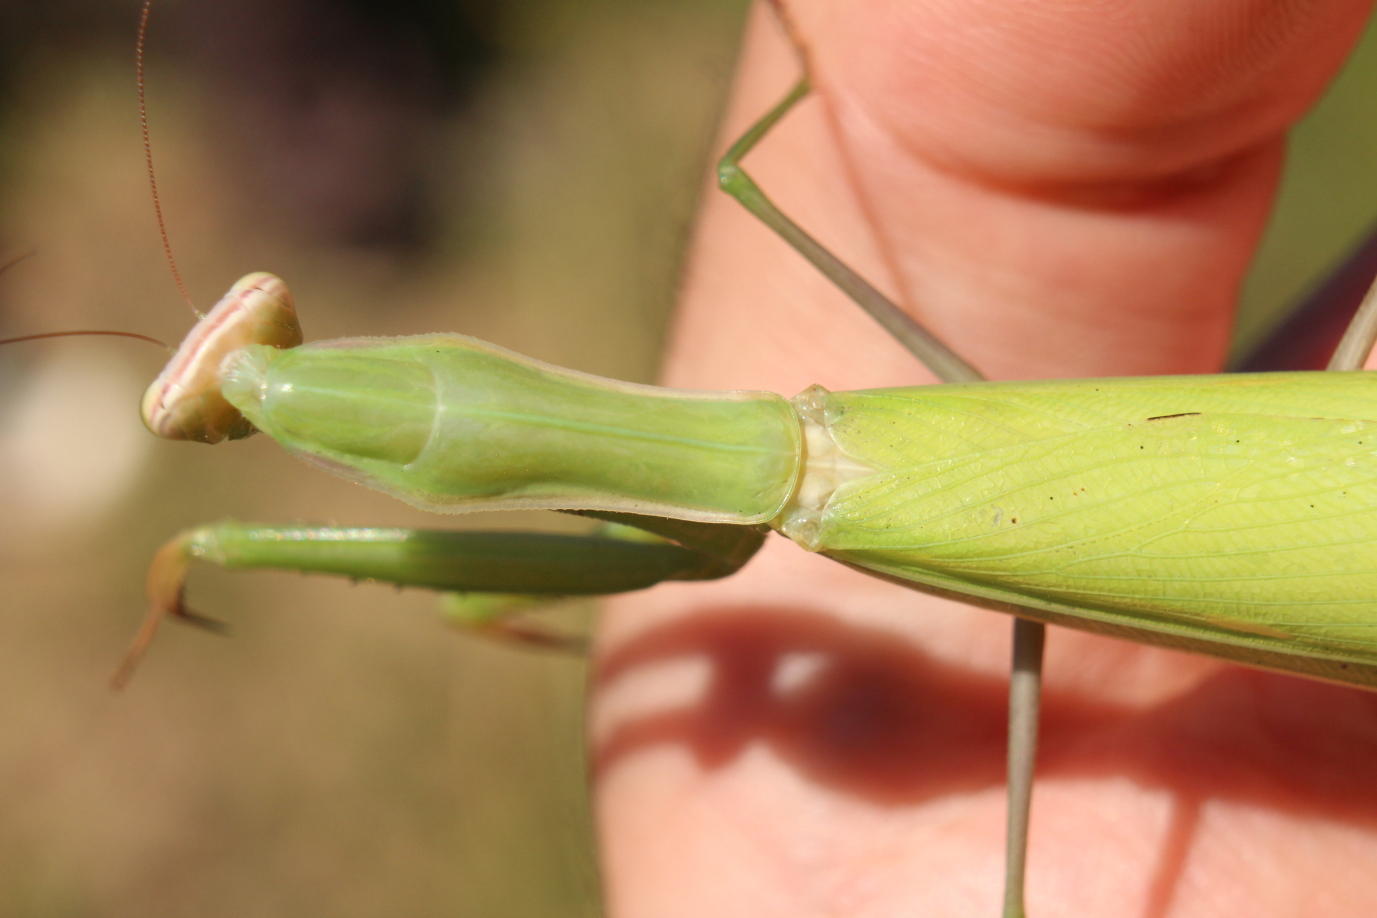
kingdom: Animalia
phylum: Arthropoda
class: Insecta
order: Mantodea
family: Mantidae
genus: Mantis
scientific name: Mantis religiosa
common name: Praying mantis
